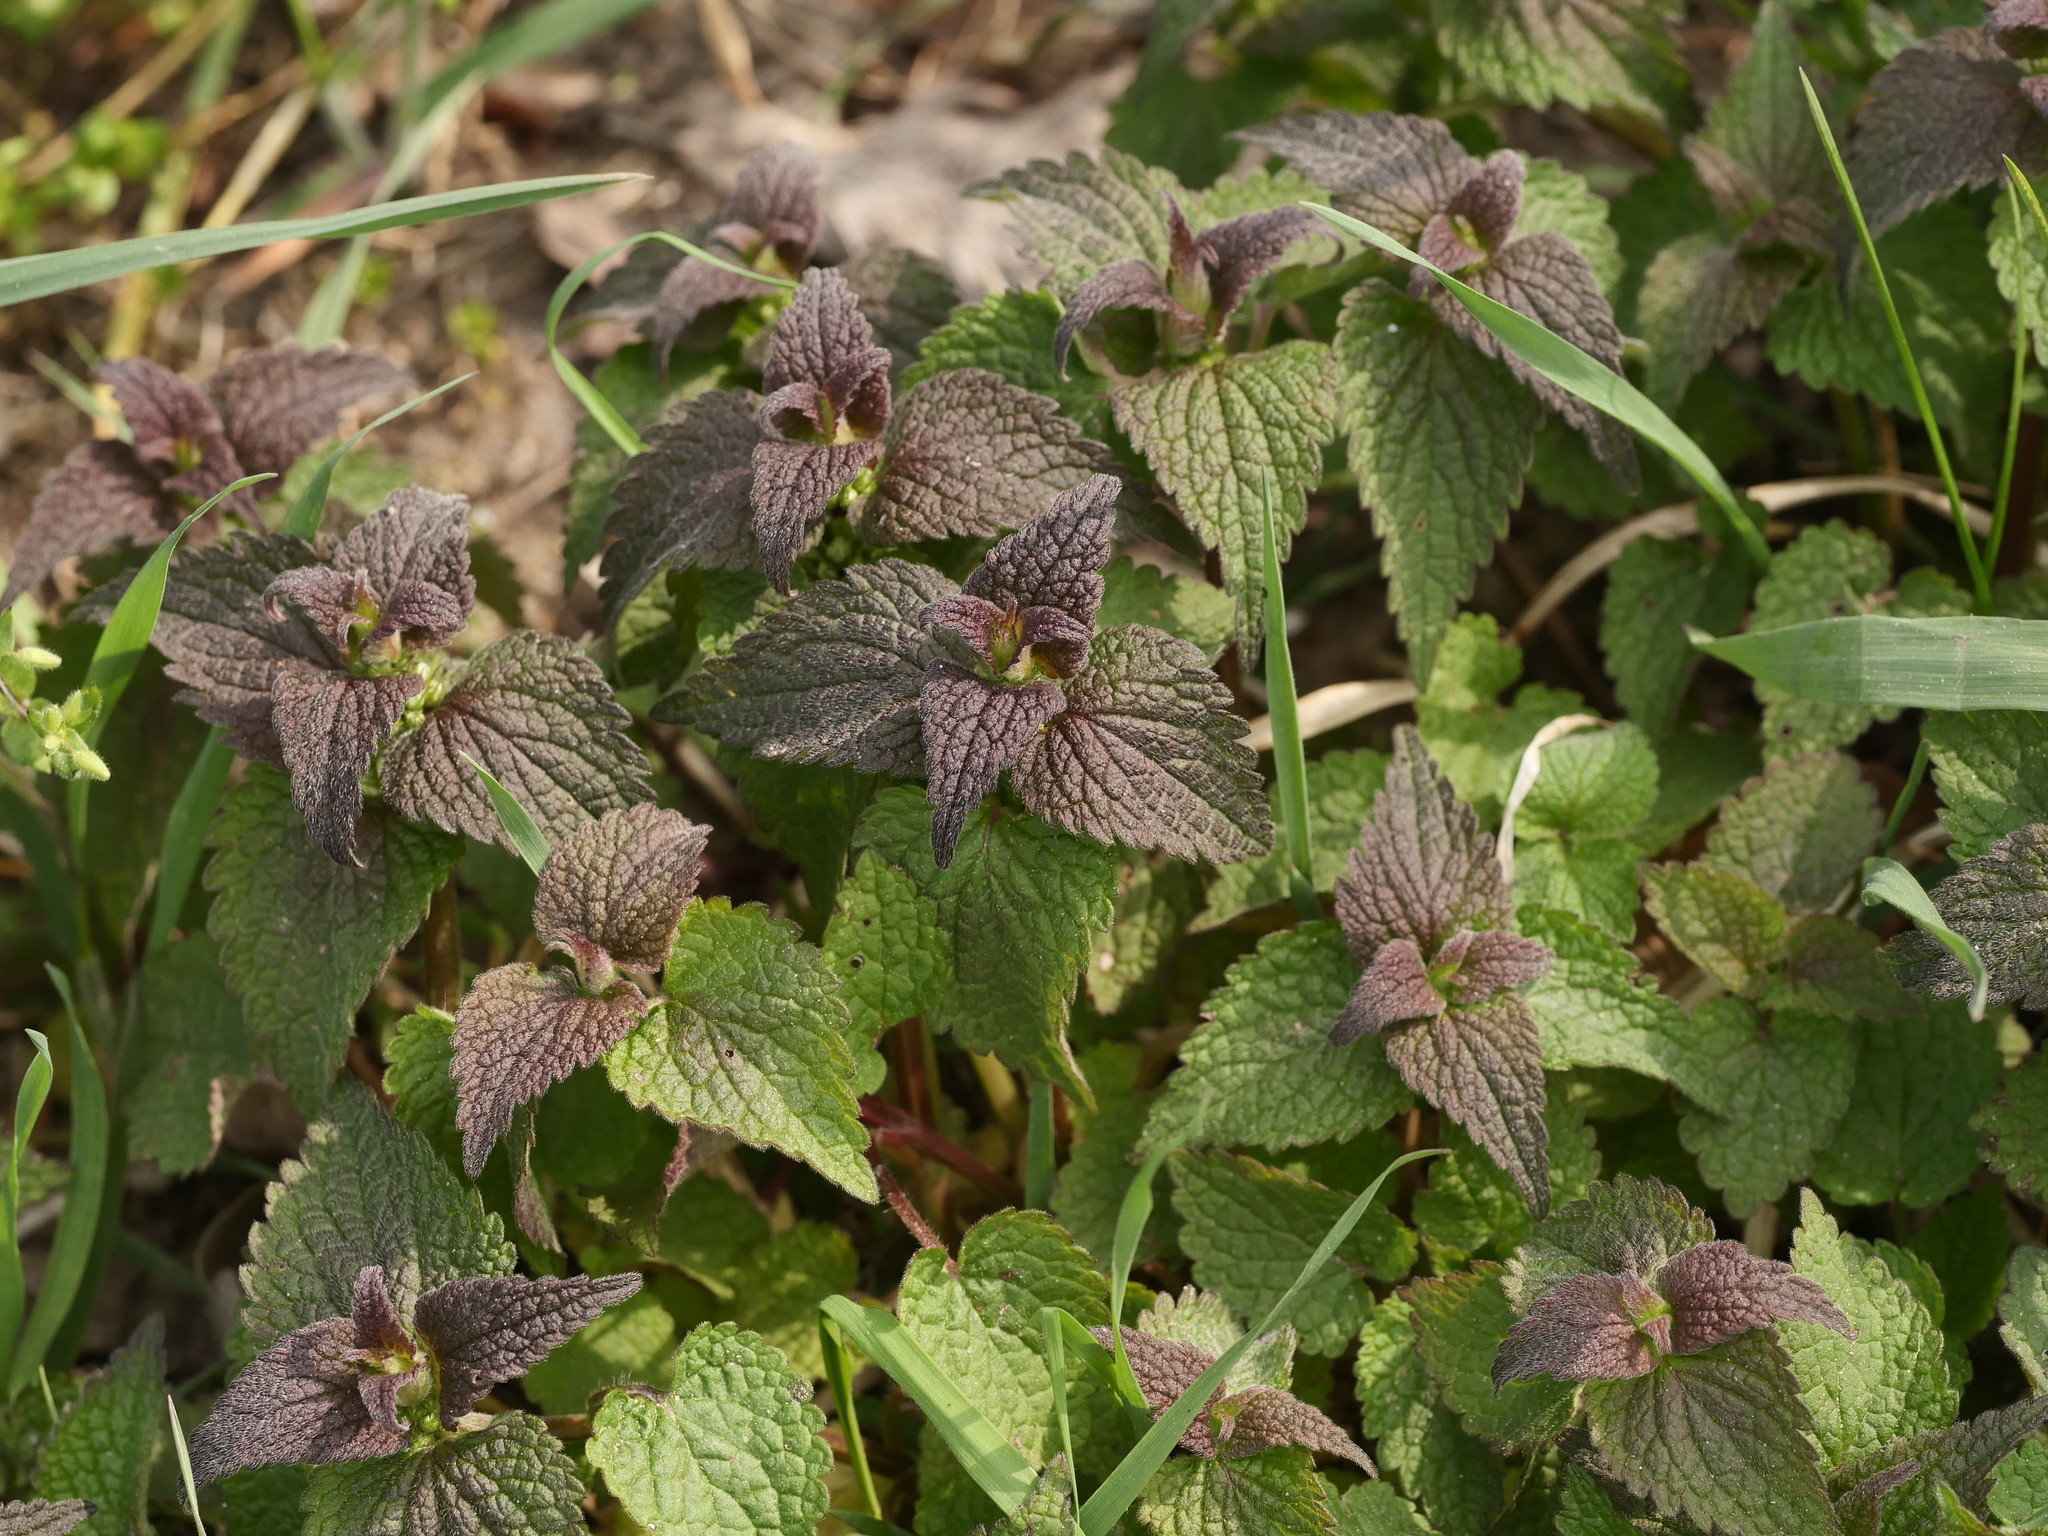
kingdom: Plantae
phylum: Tracheophyta
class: Magnoliopsida
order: Lamiales
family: Lamiaceae
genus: Lamium
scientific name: Lamium album
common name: White dead-nettle
